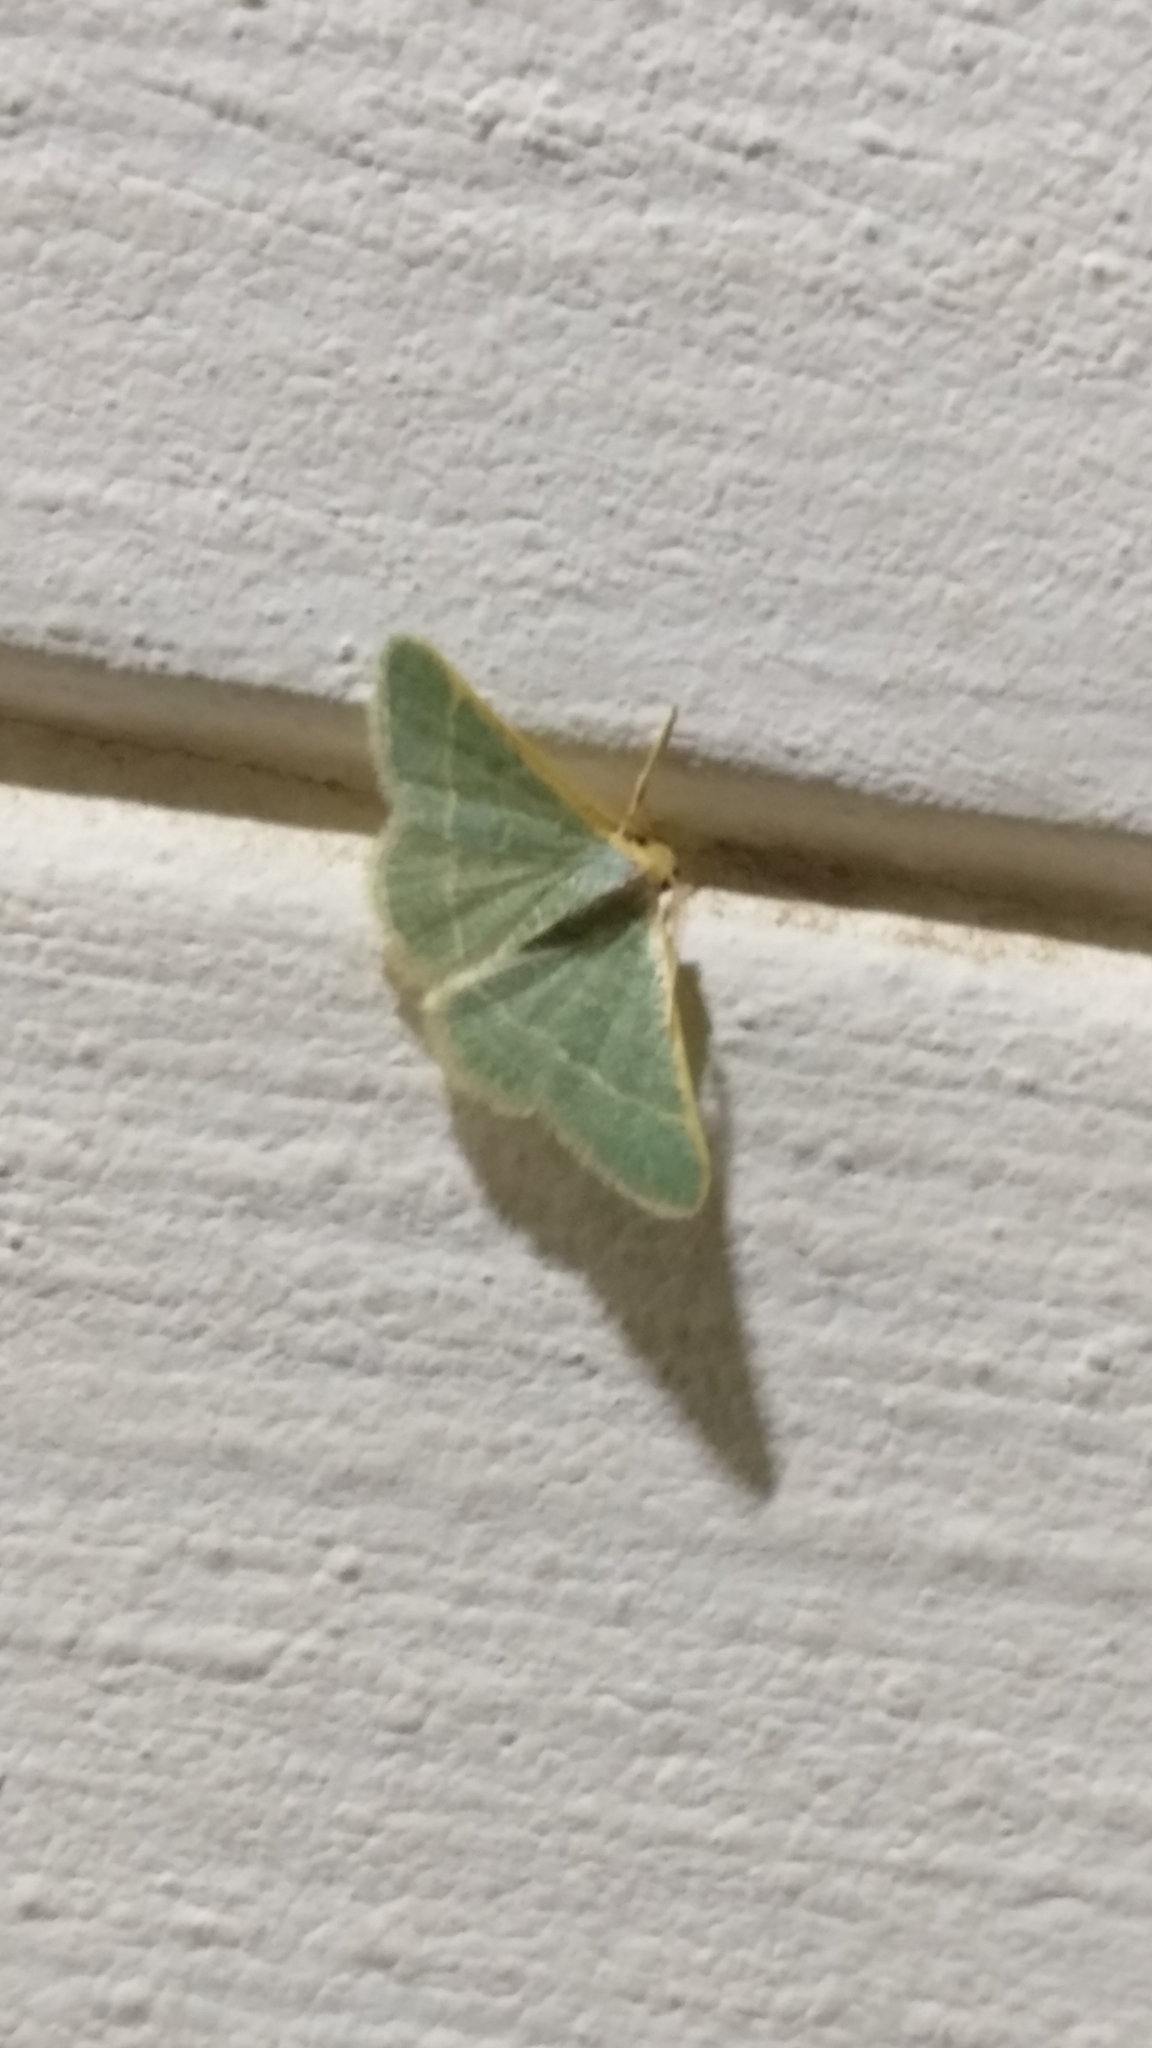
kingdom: Animalia
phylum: Arthropoda
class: Insecta
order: Lepidoptera
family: Geometridae
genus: Microloxia
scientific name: Microloxia indecretata
